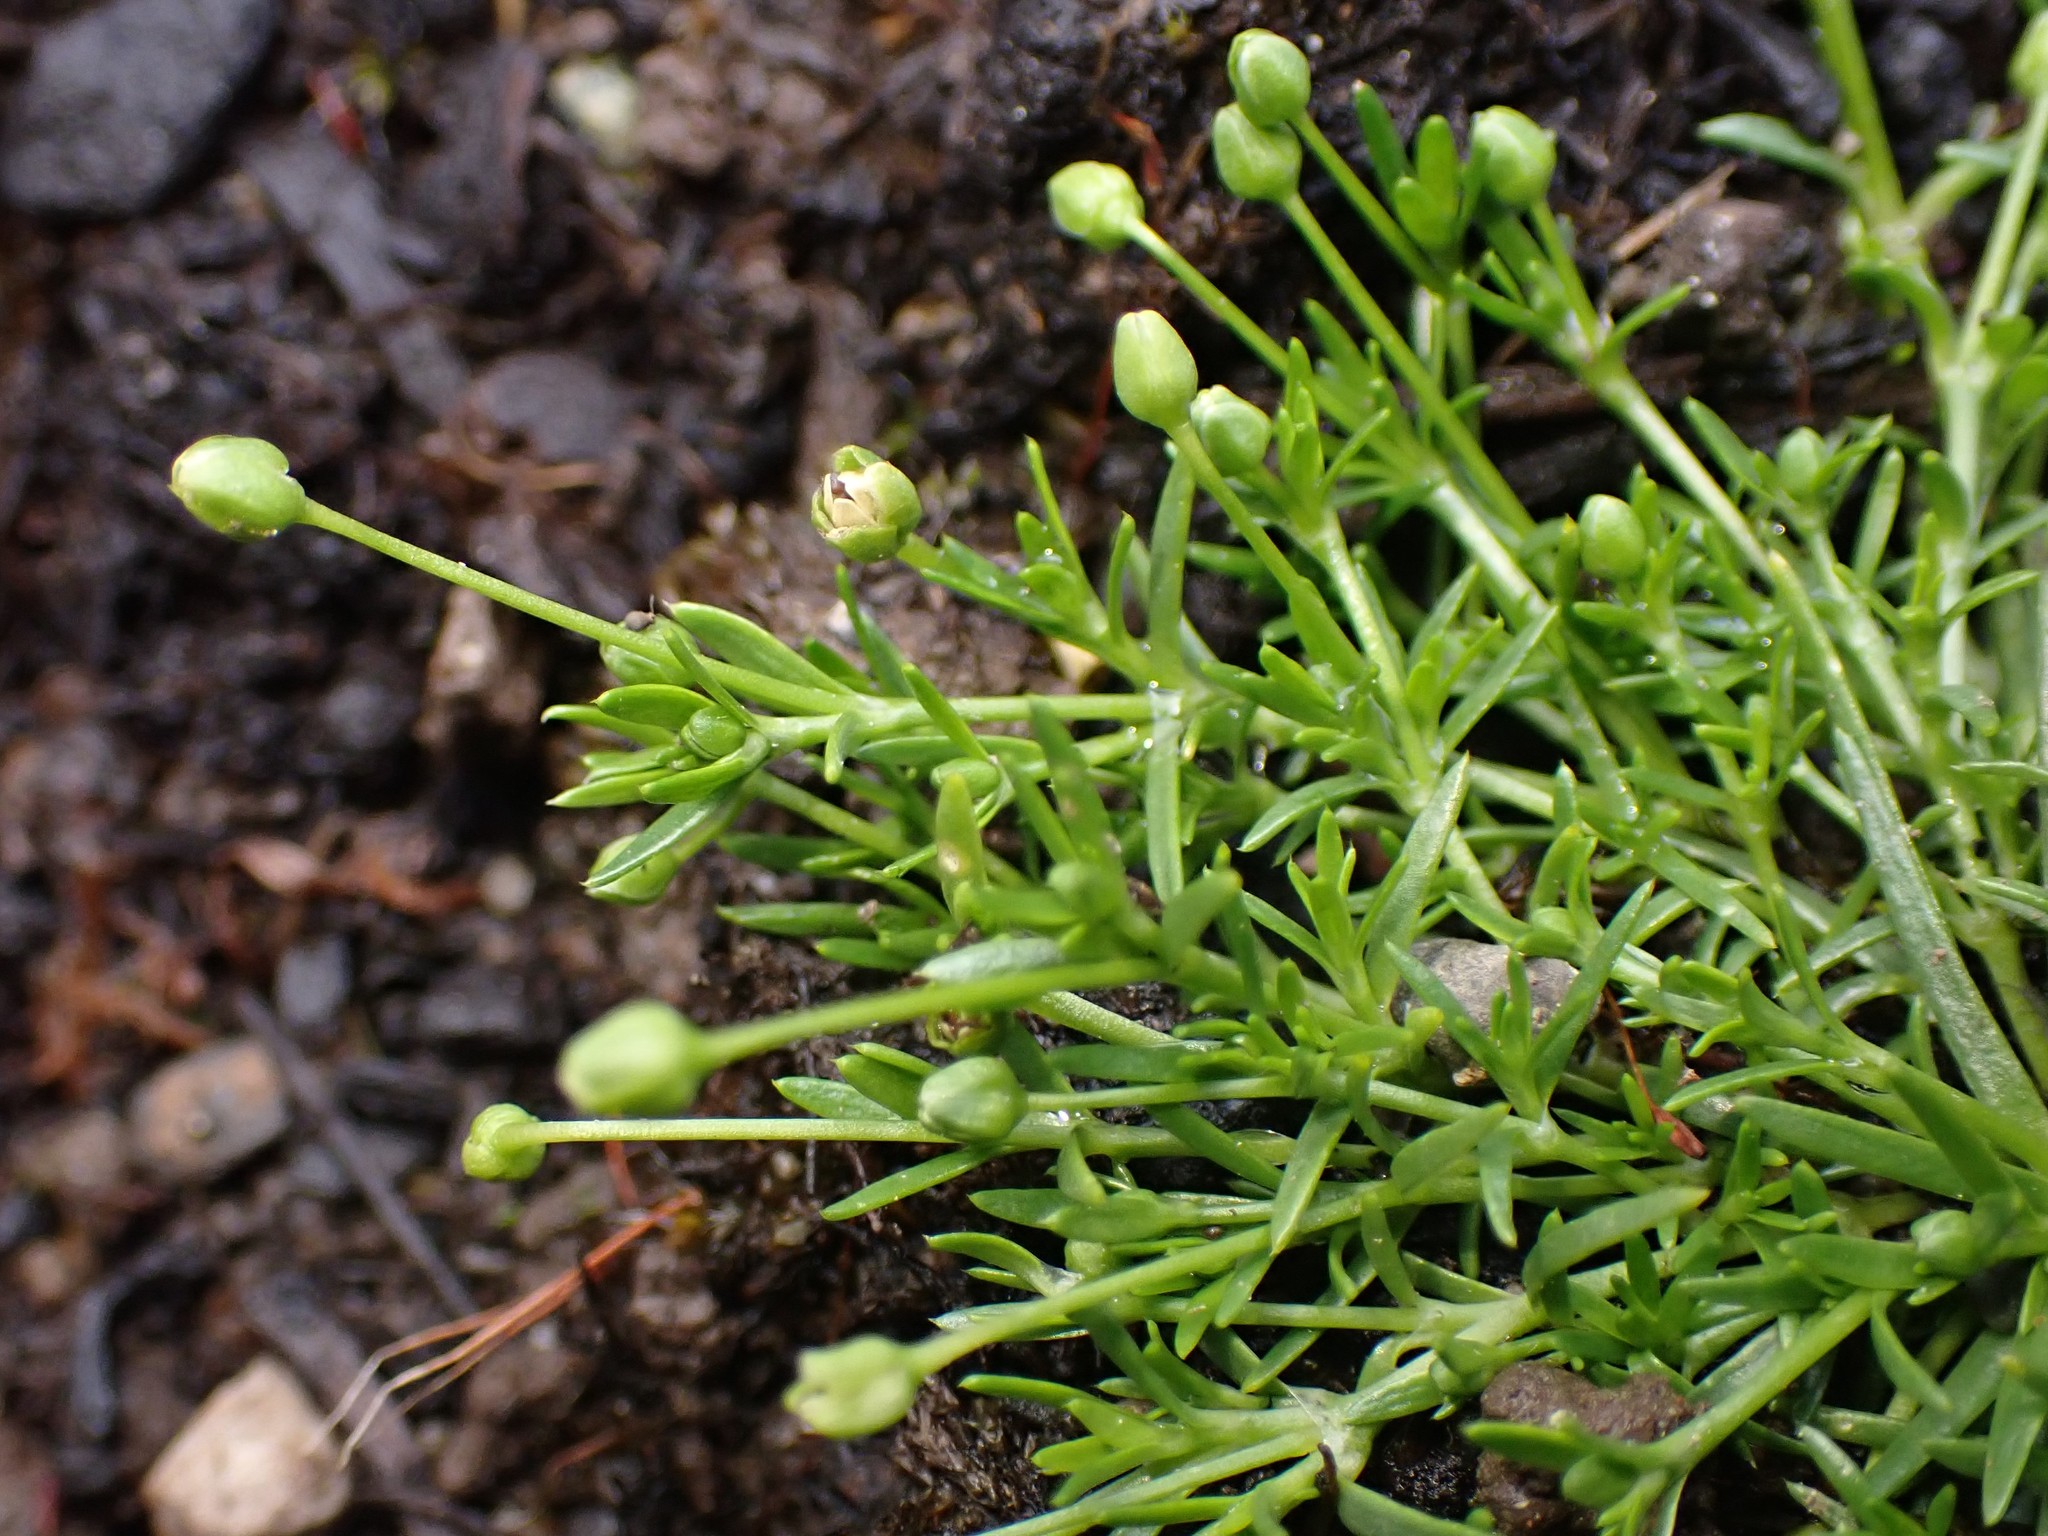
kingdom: Plantae
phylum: Tracheophyta
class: Magnoliopsida
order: Caryophyllales
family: Caryophyllaceae
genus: Sagina
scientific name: Sagina procumbens
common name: Procumbent pearlwort
